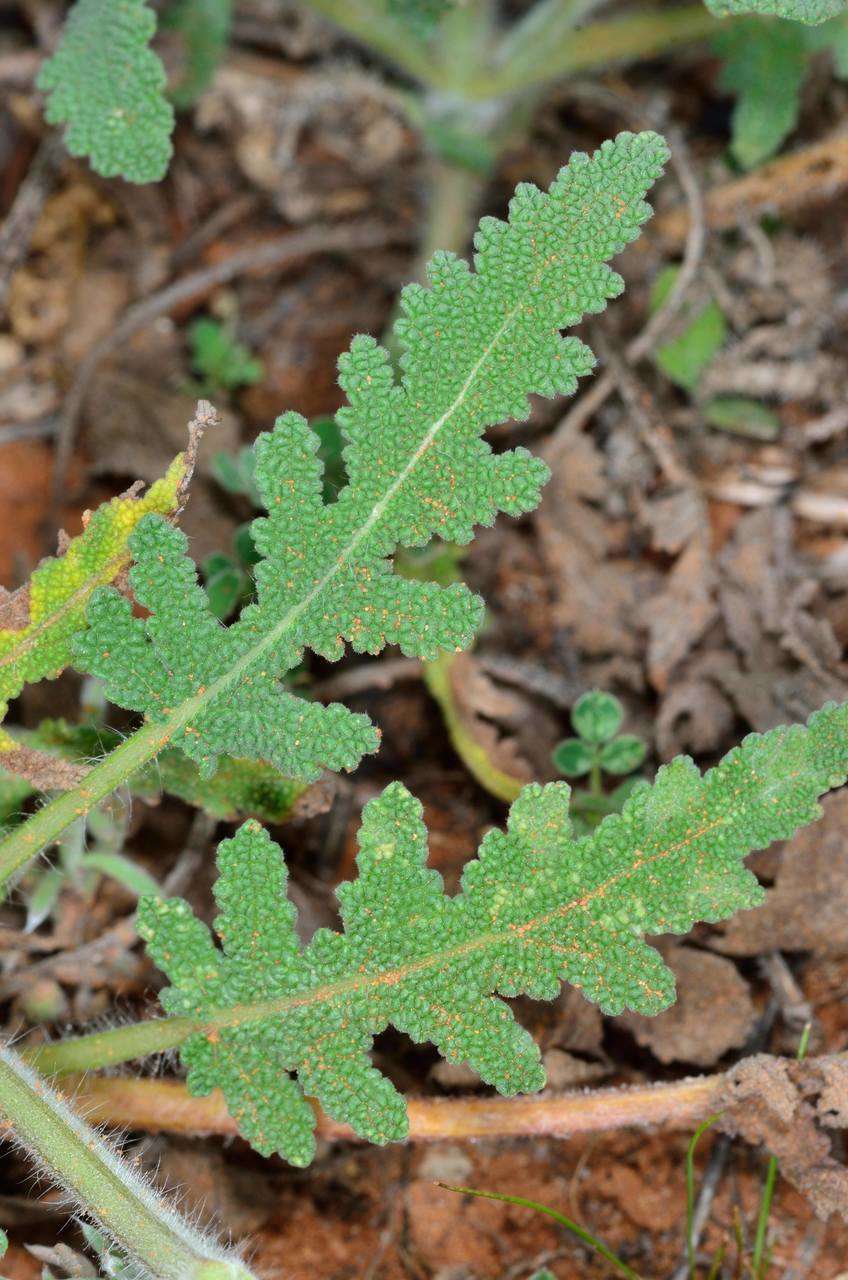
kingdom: Plantae
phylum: Tracheophyta
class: Magnoliopsida
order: Lamiales
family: Lamiaceae
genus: Salvia
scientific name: Salvia verbenaca
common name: Wild clary
